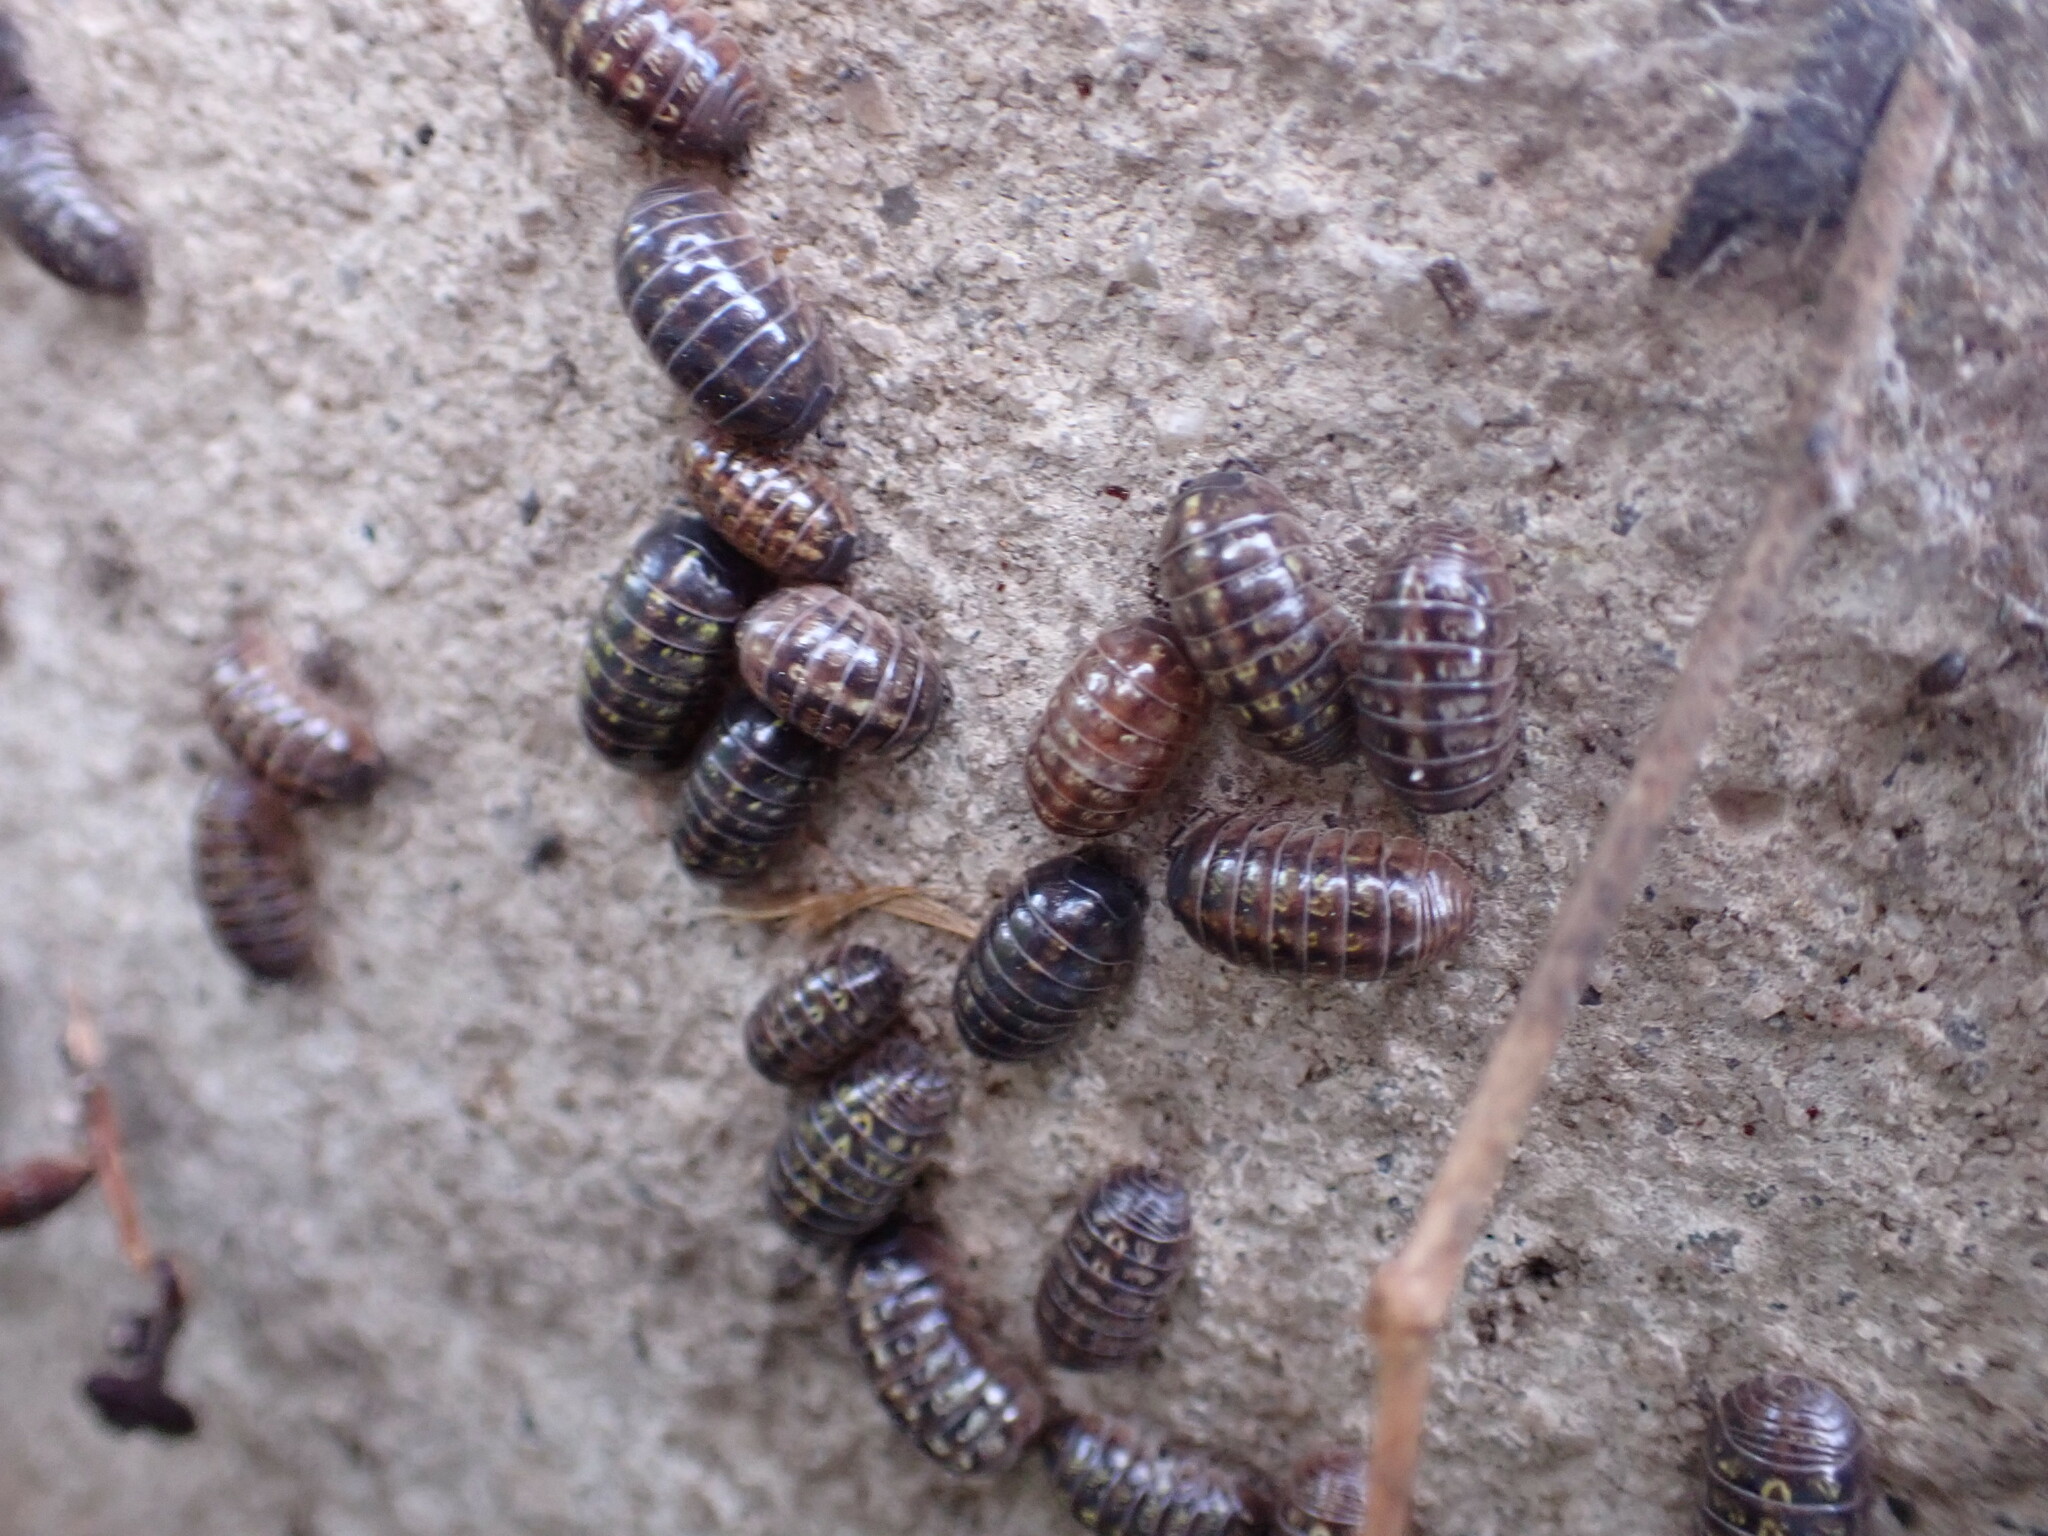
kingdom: Animalia
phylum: Arthropoda
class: Malacostraca
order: Isopoda
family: Armadillidiidae
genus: Armadillidium
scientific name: Armadillidium vulgare
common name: Common pill woodlouse
